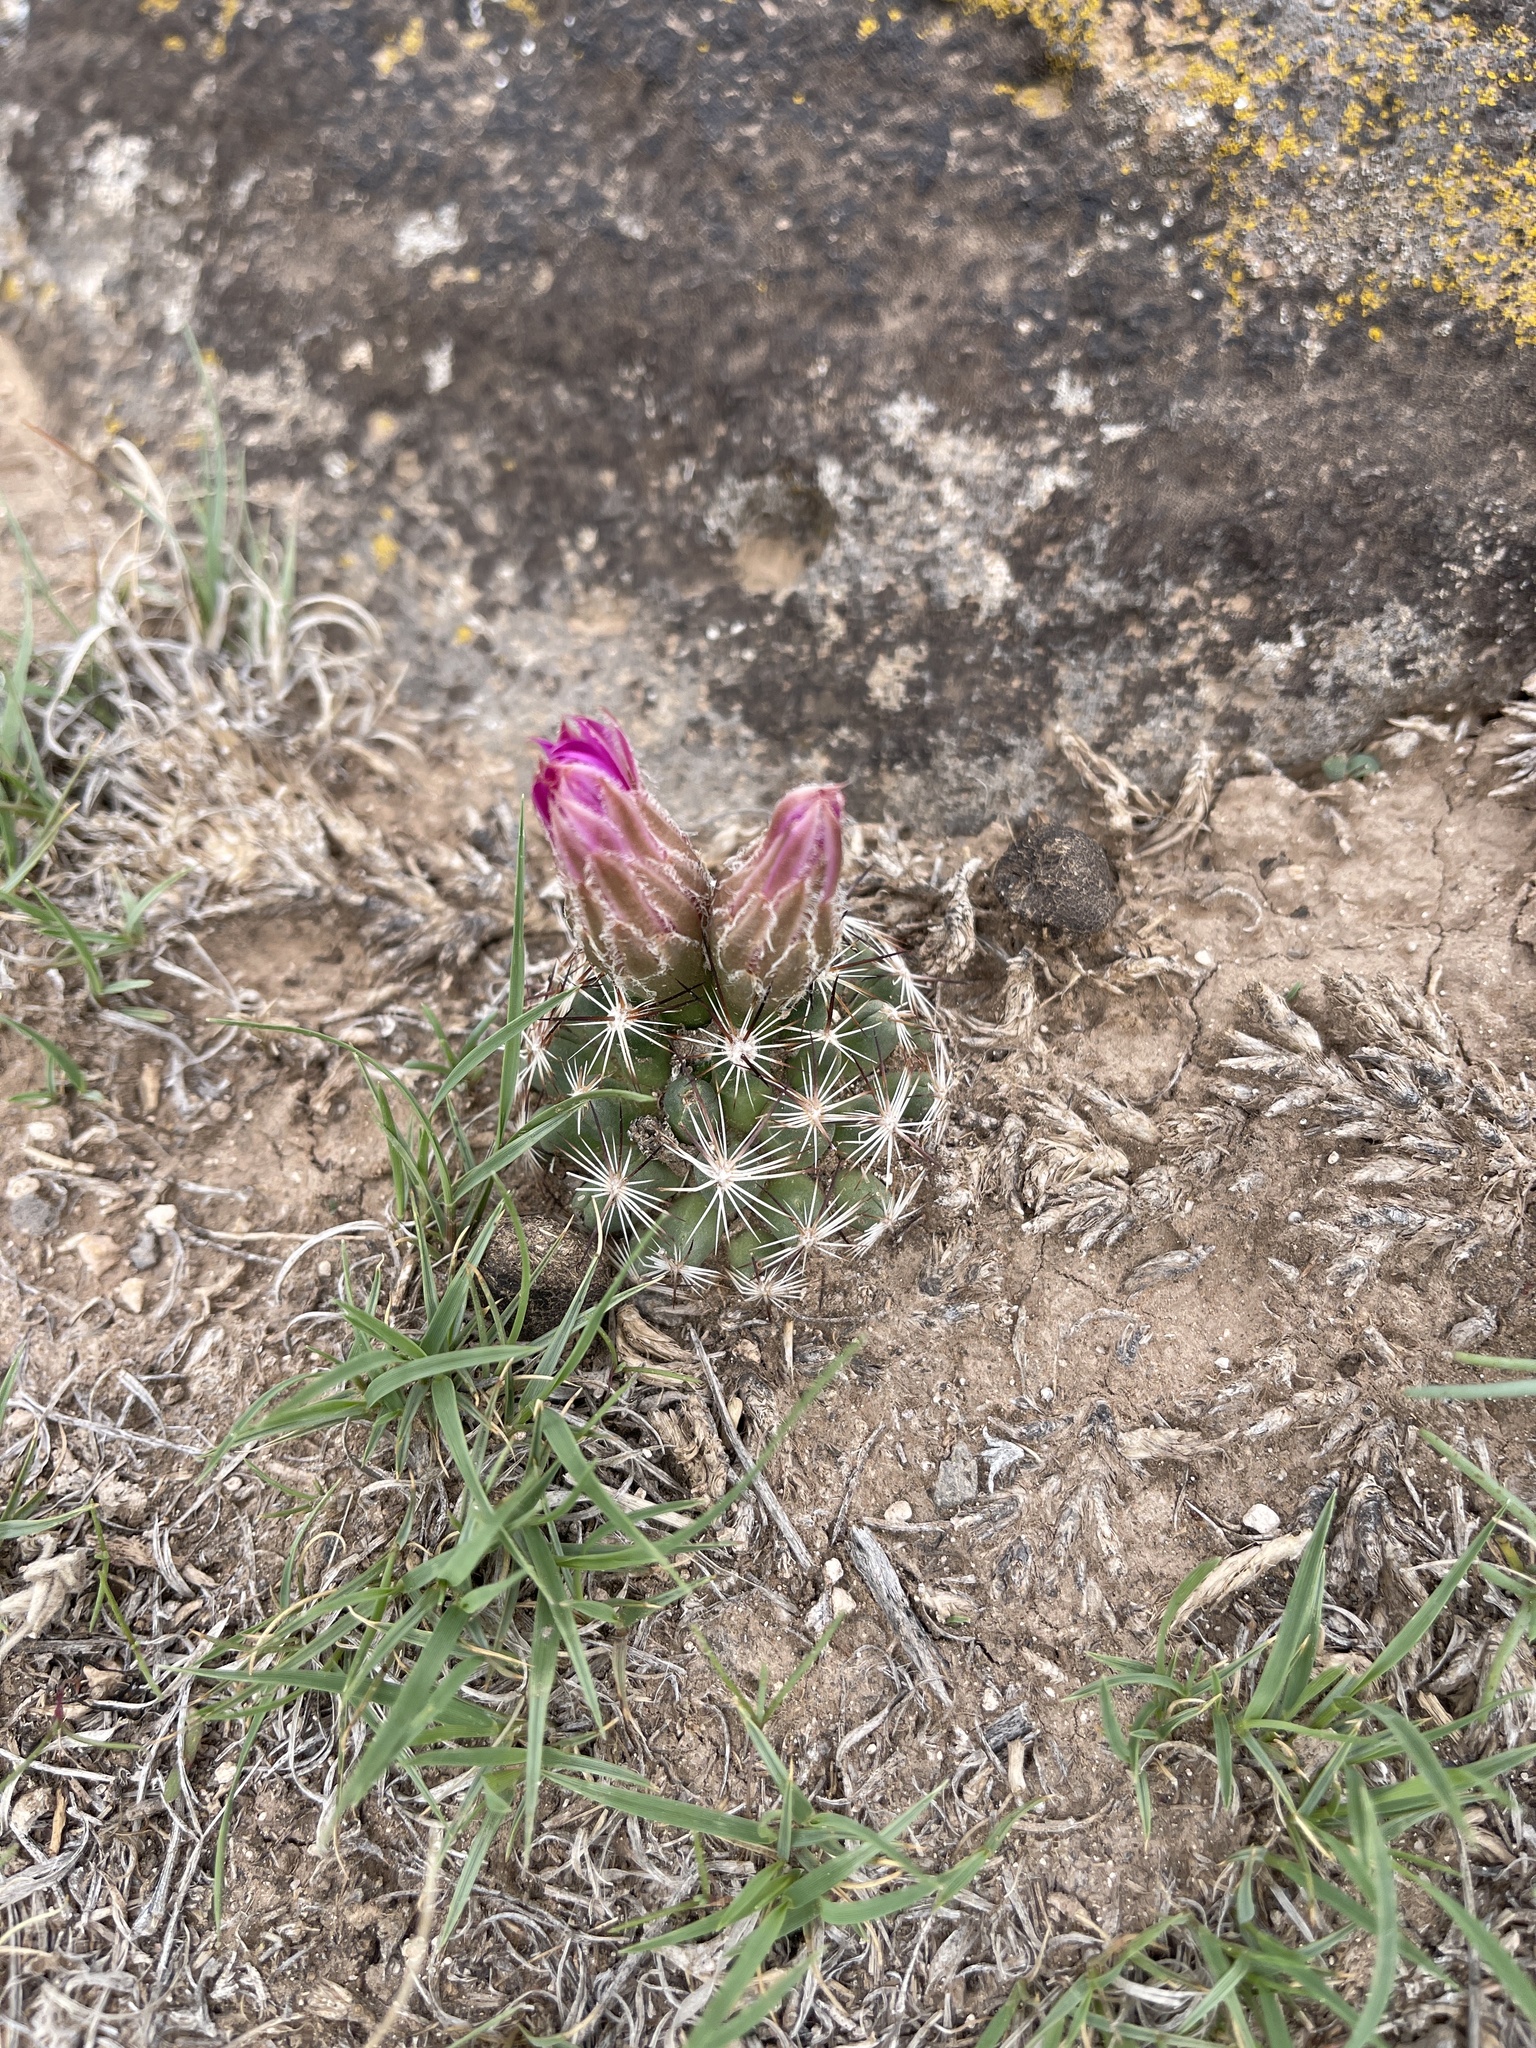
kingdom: Plantae
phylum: Tracheophyta
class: Magnoliopsida
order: Caryophyllales
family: Cactaceae
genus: Pelecyphora
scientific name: Pelecyphora vivipara
